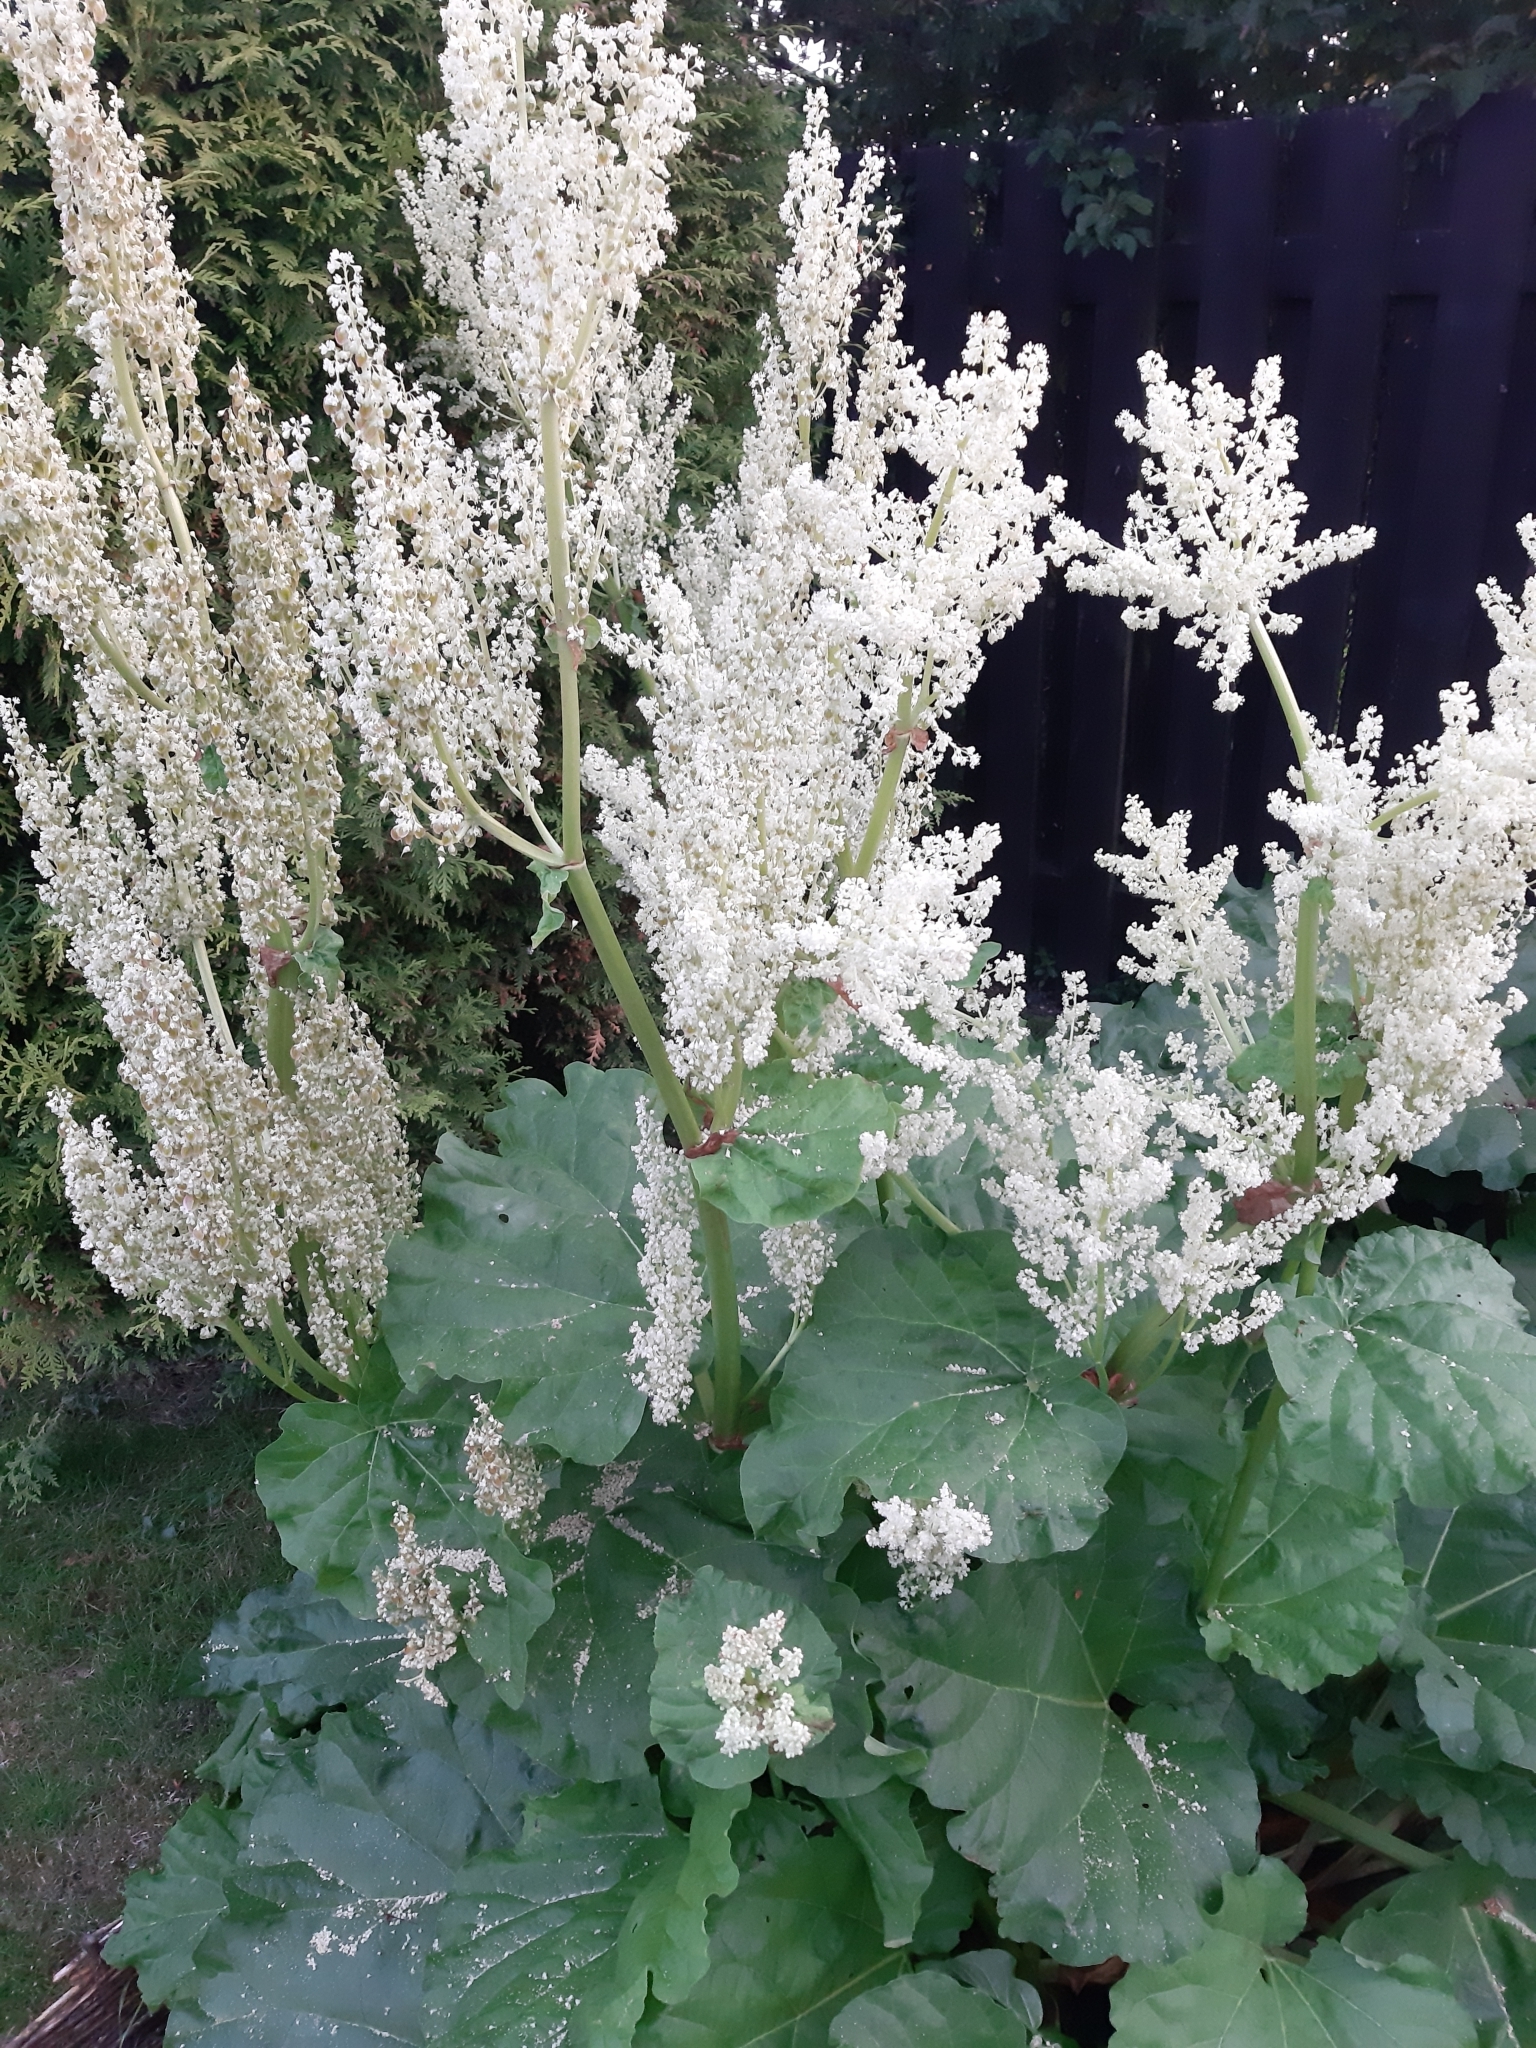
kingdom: Plantae
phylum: Tracheophyta
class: Magnoliopsida
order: Caryophyllales
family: Polygonaceae
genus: Rheum
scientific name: Rheum rhabarbarum
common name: Garden rhubarb
